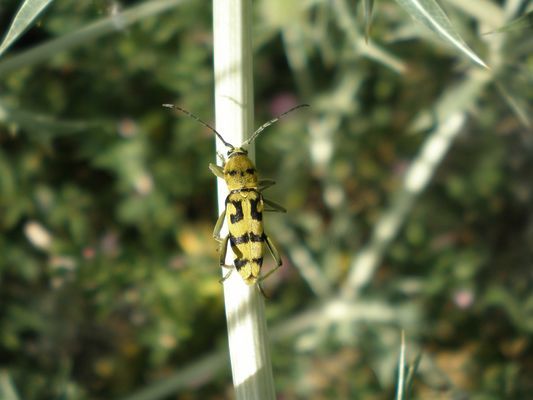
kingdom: Animalia
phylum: Arthropoda
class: Insecta
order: Coleoptera
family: Cerambycidae
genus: Chlorophorus
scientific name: Chlorophorus varius
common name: Grape wood borer
